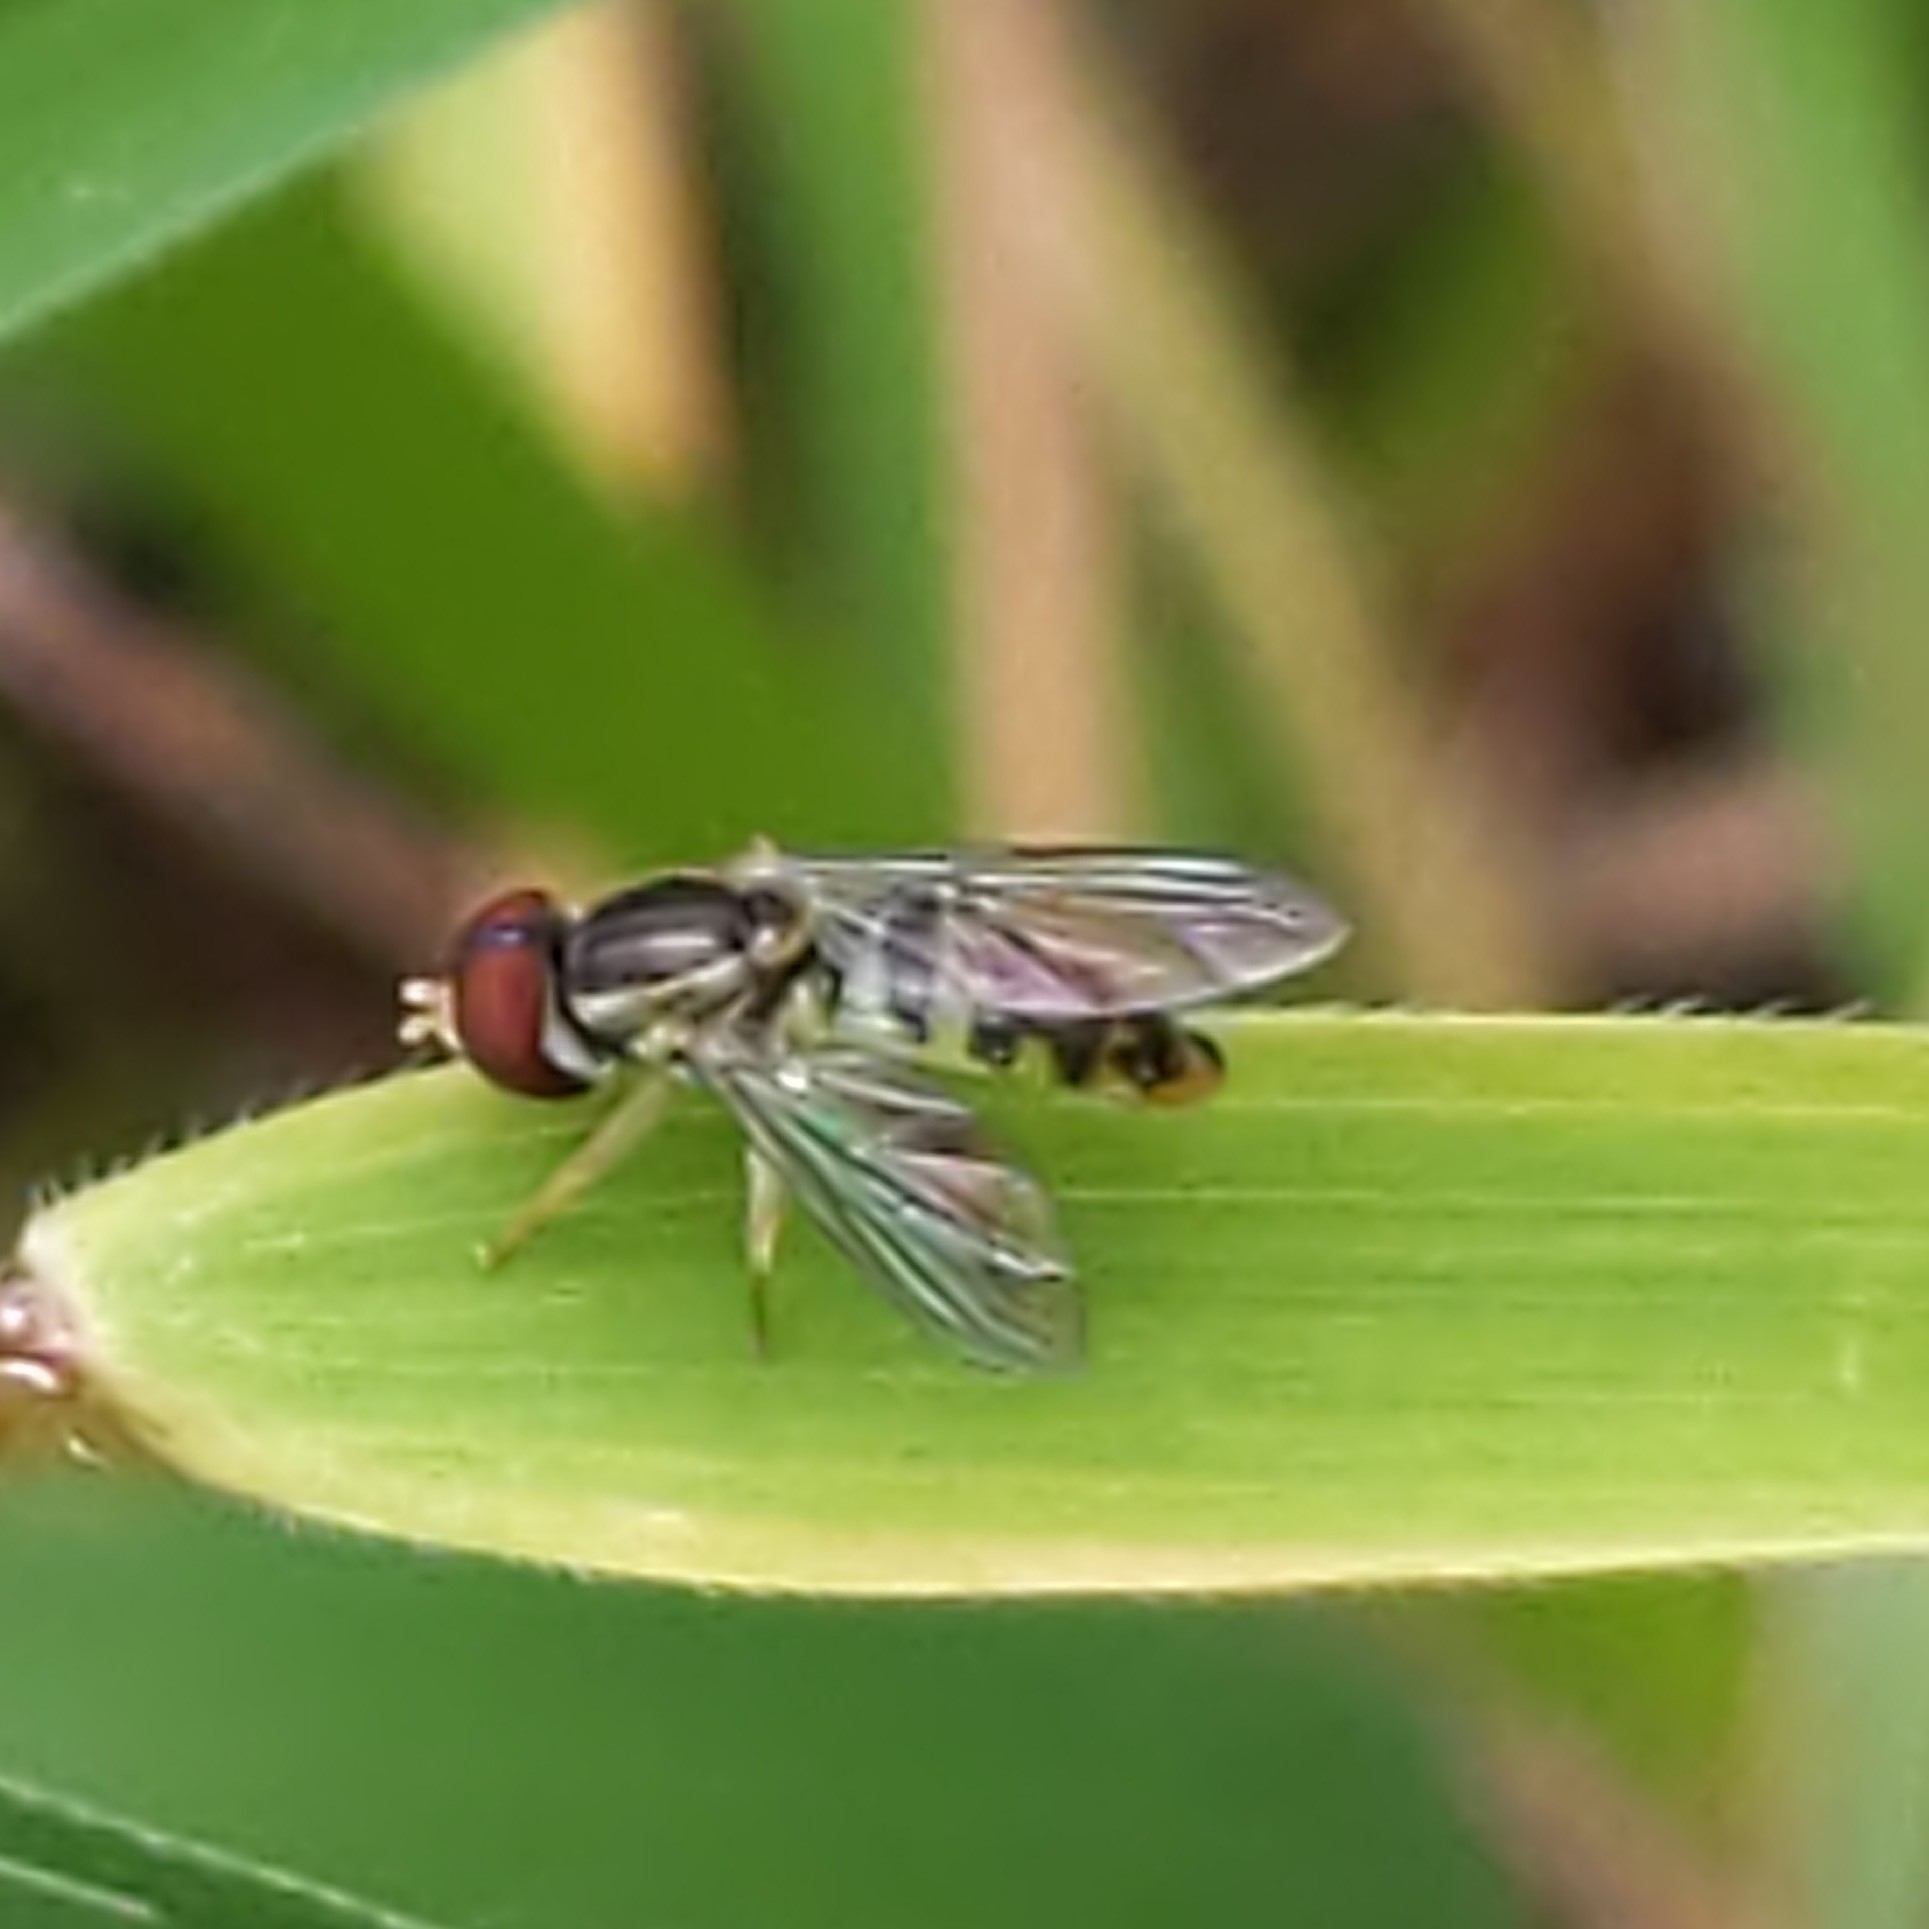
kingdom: Animalia
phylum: Arthropoda
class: Insecta
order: Diptera
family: Syrphidae
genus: Toxomerus
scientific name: Toxomerus geminatus
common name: Eastern calligrapher
